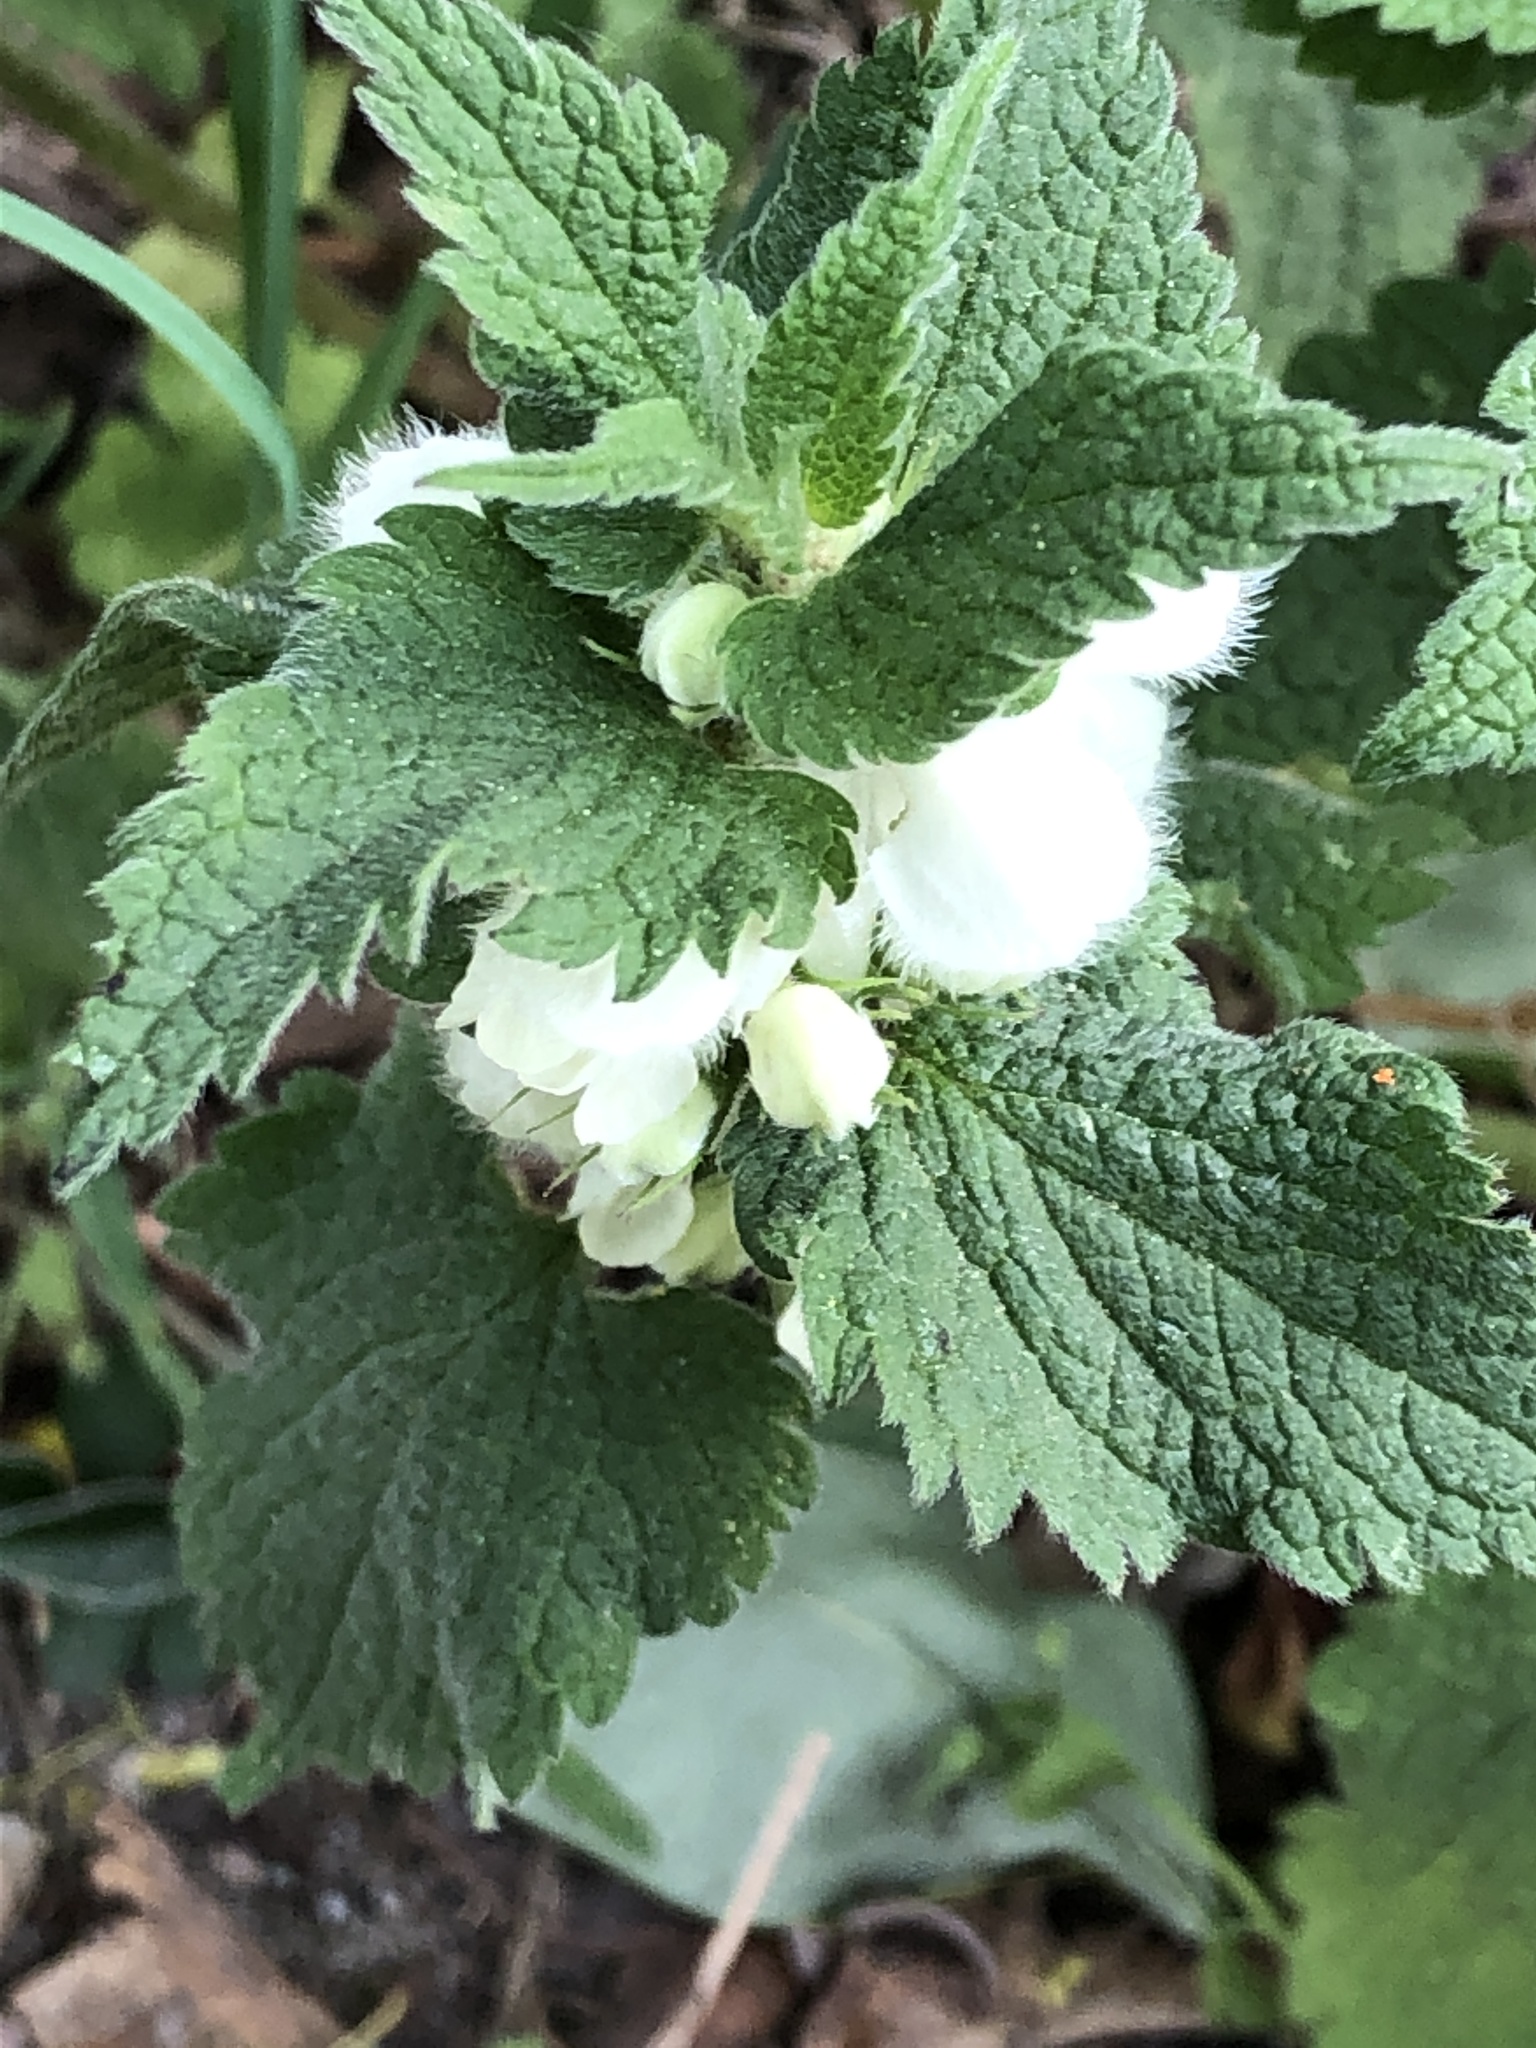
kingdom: Plantae
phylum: Tracheophyta
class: Magnoliopsida
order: Lamiales
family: Lamiaceae
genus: Lamium
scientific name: Lamium album
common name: White dead-nettle
